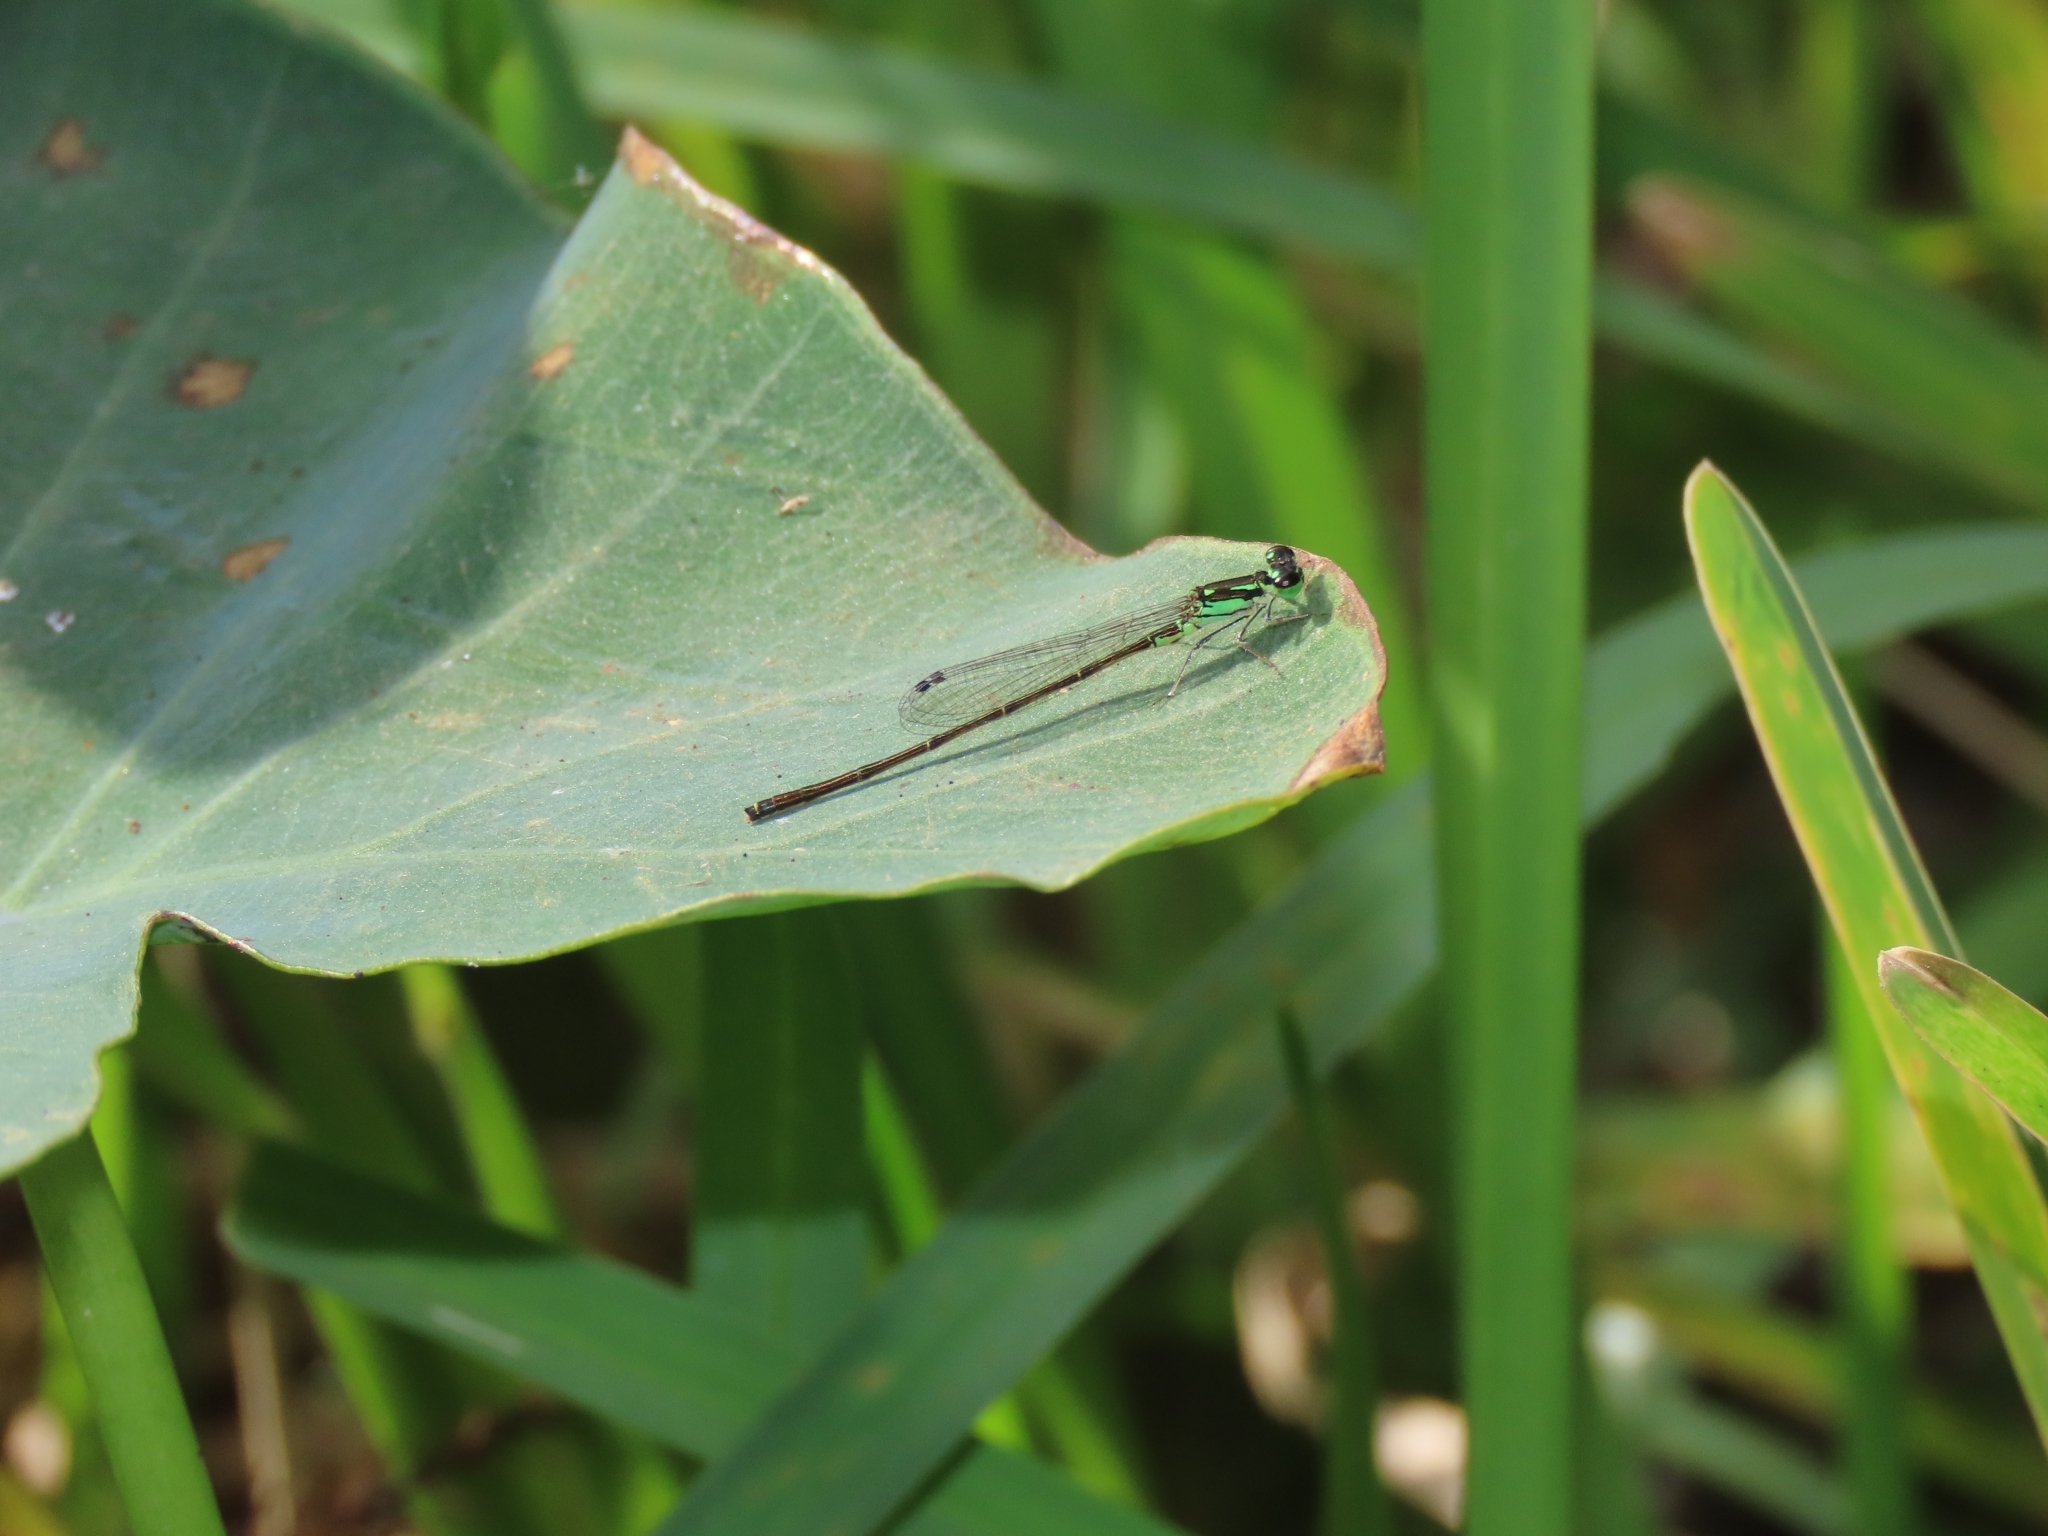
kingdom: Animalia
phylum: Arthropoda
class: Insecta
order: Odonata
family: Coenagrionidae
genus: Ischnura
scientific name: Ischnura posita
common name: Fragile forktail
